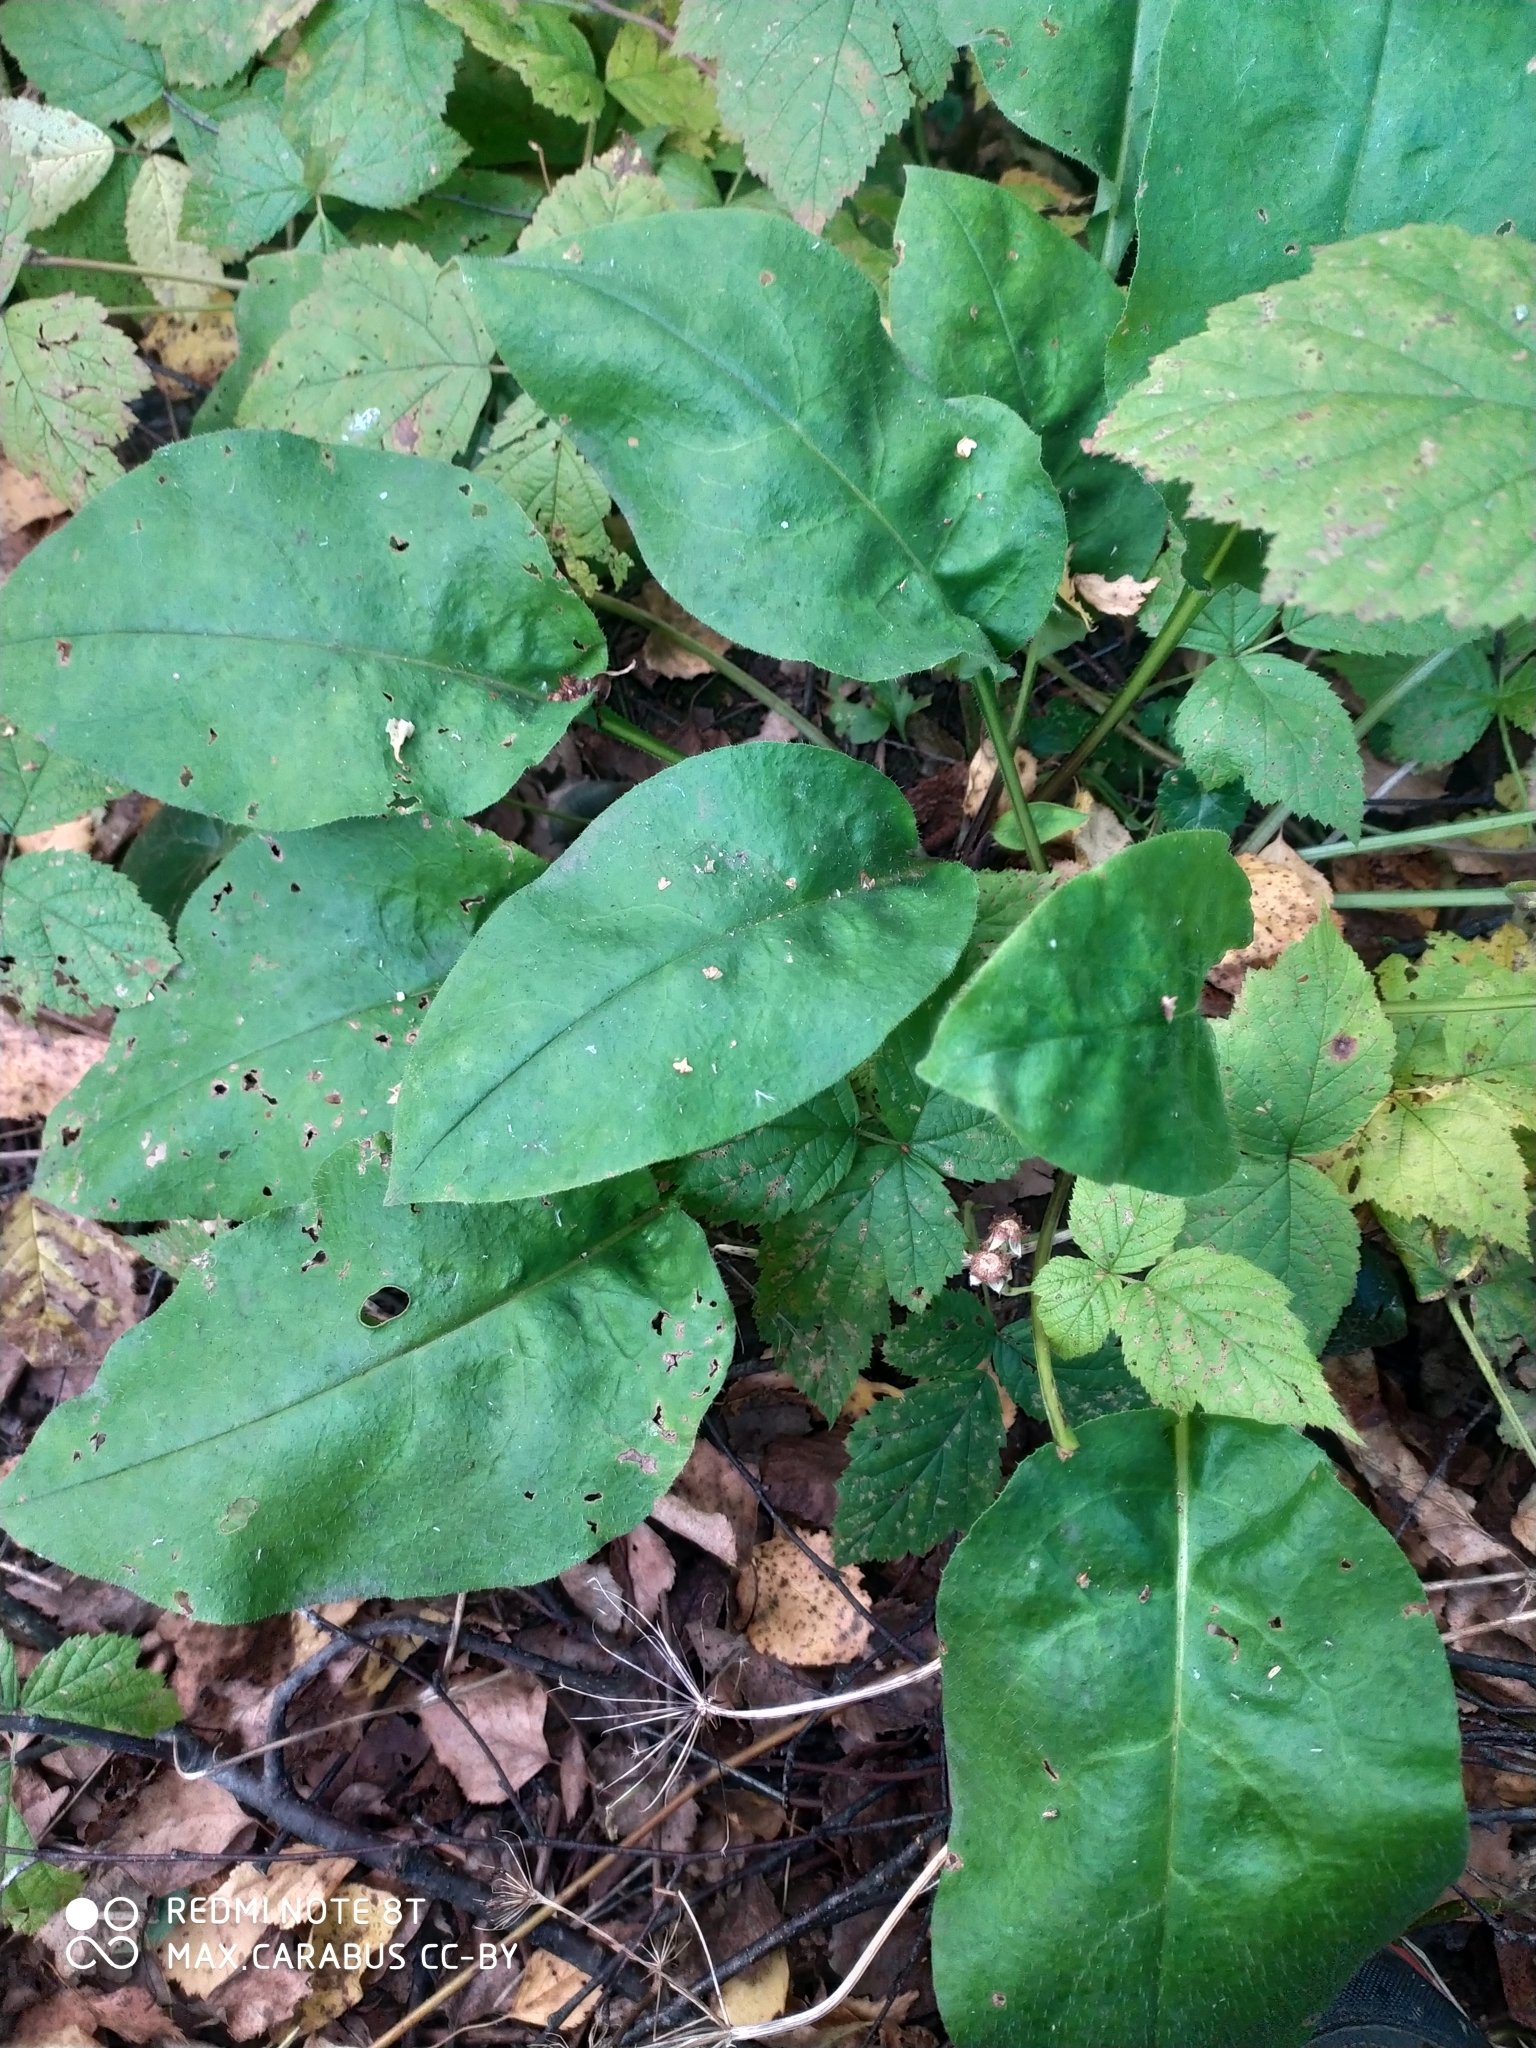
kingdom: Plantae
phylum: Tracheophyta
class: Magnoliopsida
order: Boraginales
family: Boraginaceae
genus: Pulmonaria
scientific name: Pulmonaria obscura
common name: Suffolk lungwort
